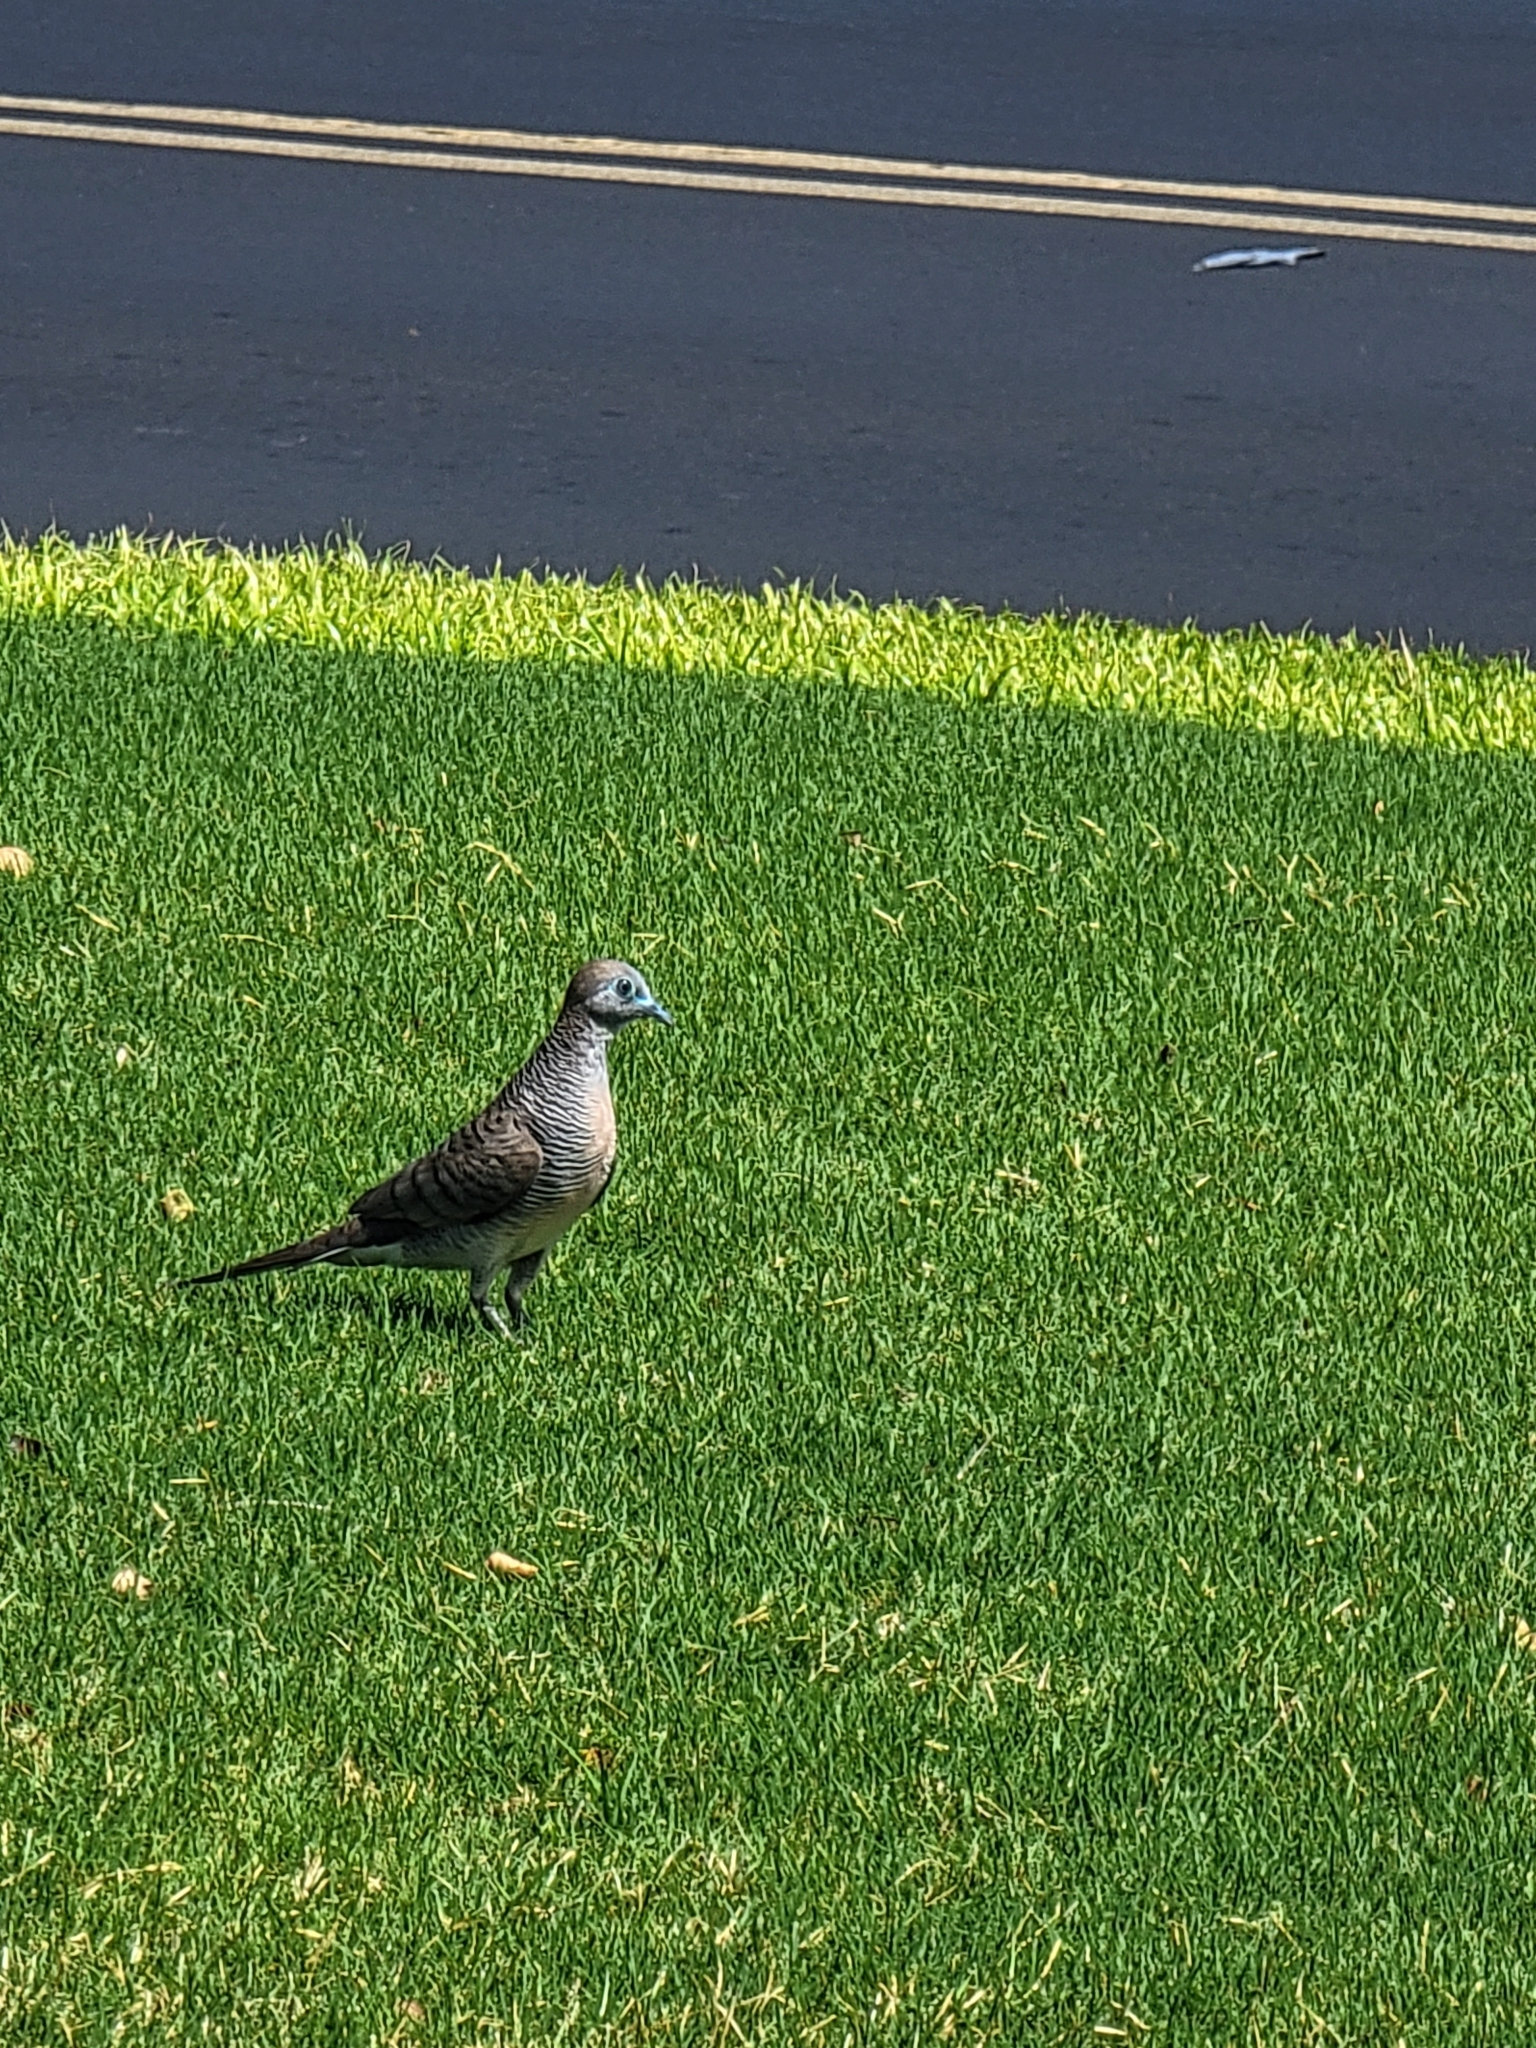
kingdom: Animalia
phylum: Chordata
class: Aves
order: Columbiformes
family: Columbidae
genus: Geopelia
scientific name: Geopelia striata
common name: Zebra dove
